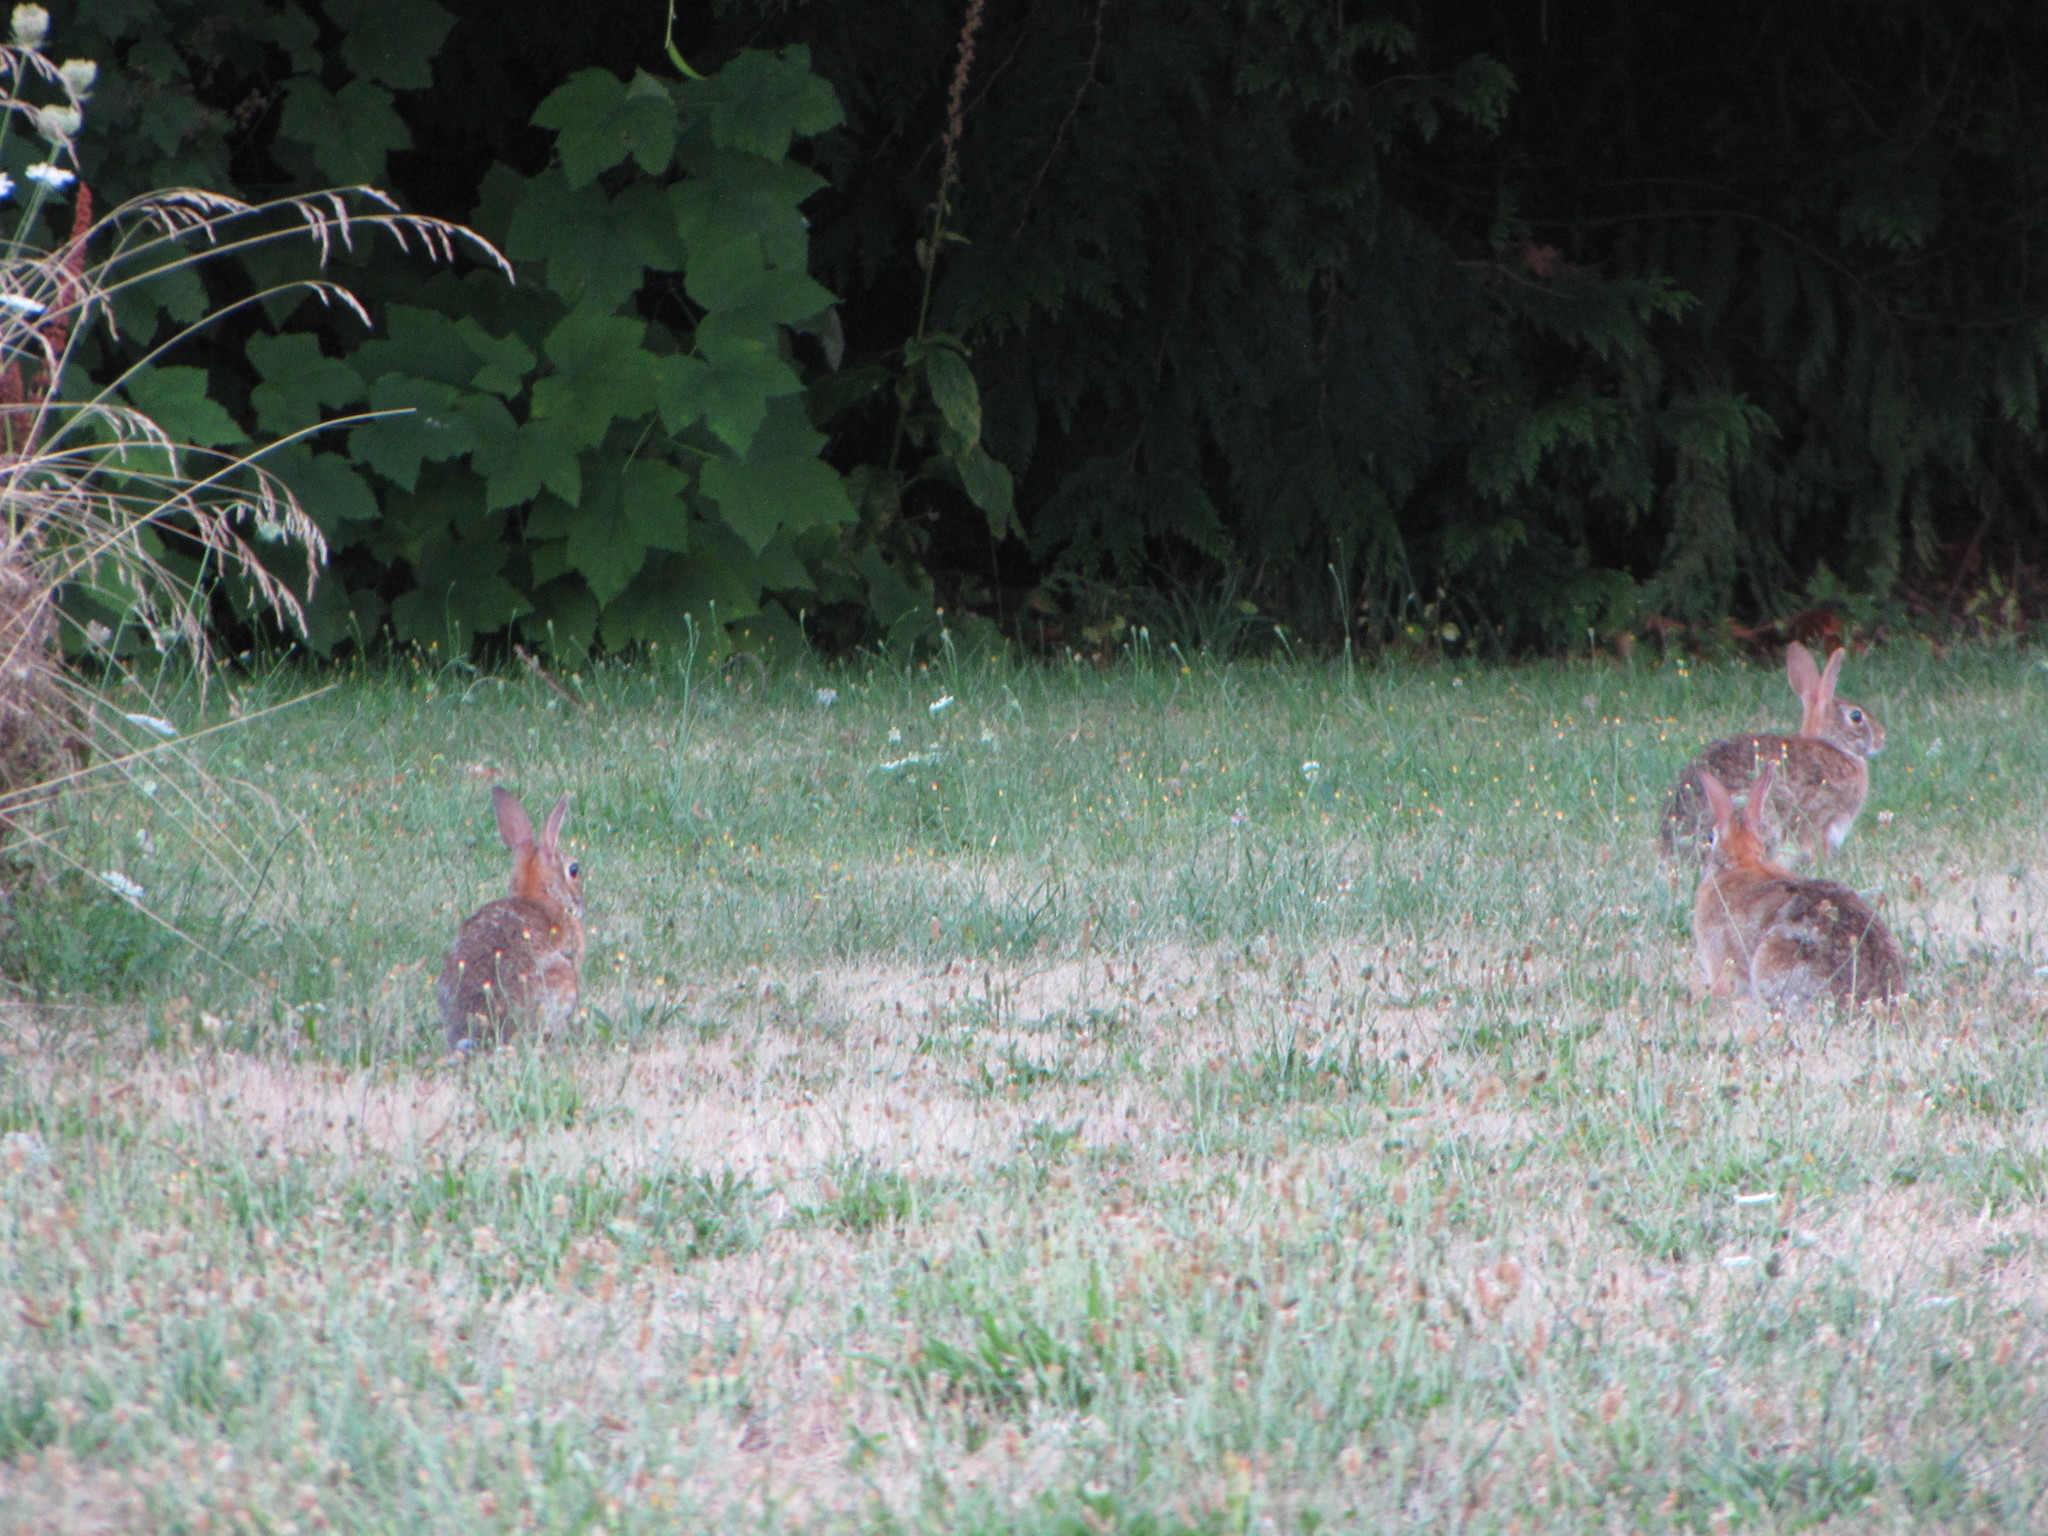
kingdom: Animalia
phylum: Chordata
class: Mammalia
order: Lagomorpha
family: Leporidae
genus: Sylvilagus
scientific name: Sylvilagus floridanus
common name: Eastern cottontail
